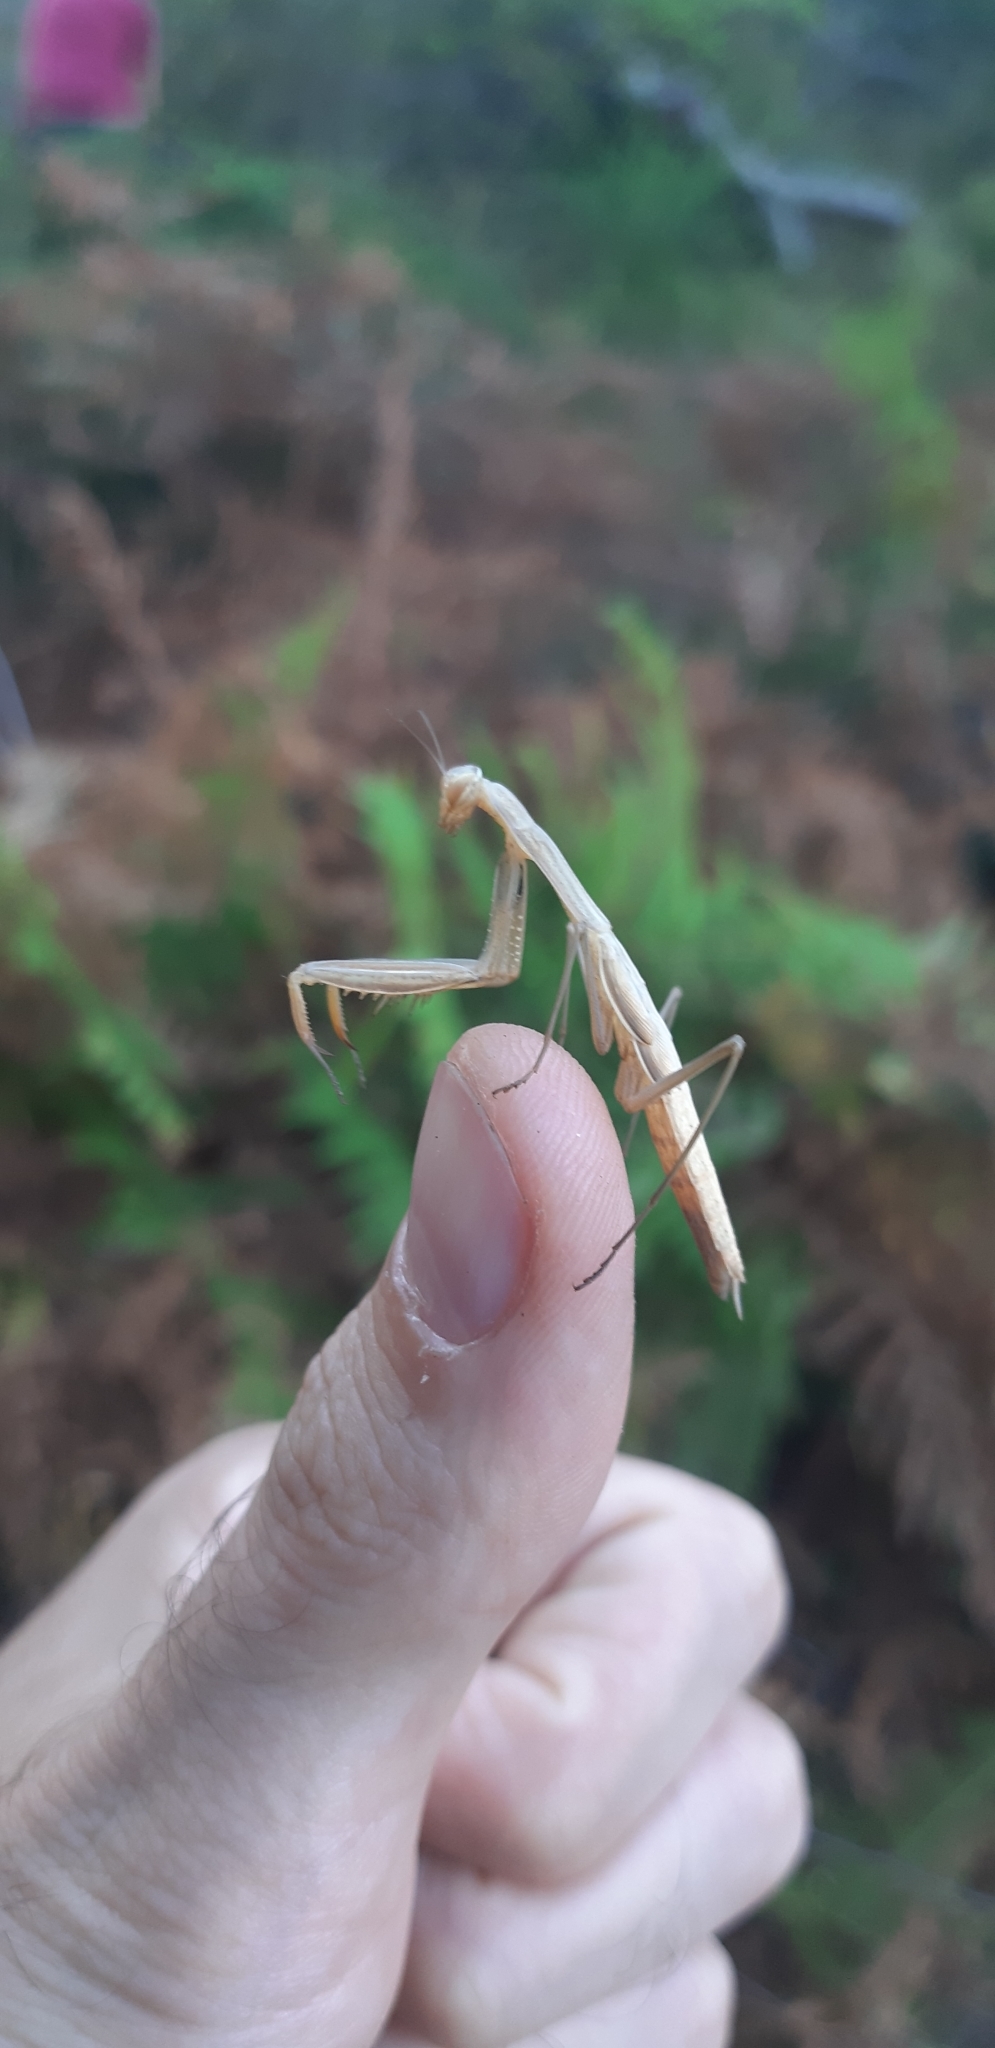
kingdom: Animalia
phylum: Arthropoda
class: Insecta
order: Mantodea
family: Mantidae
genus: Mantis
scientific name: Mantis religiosa
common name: Praying mantis
